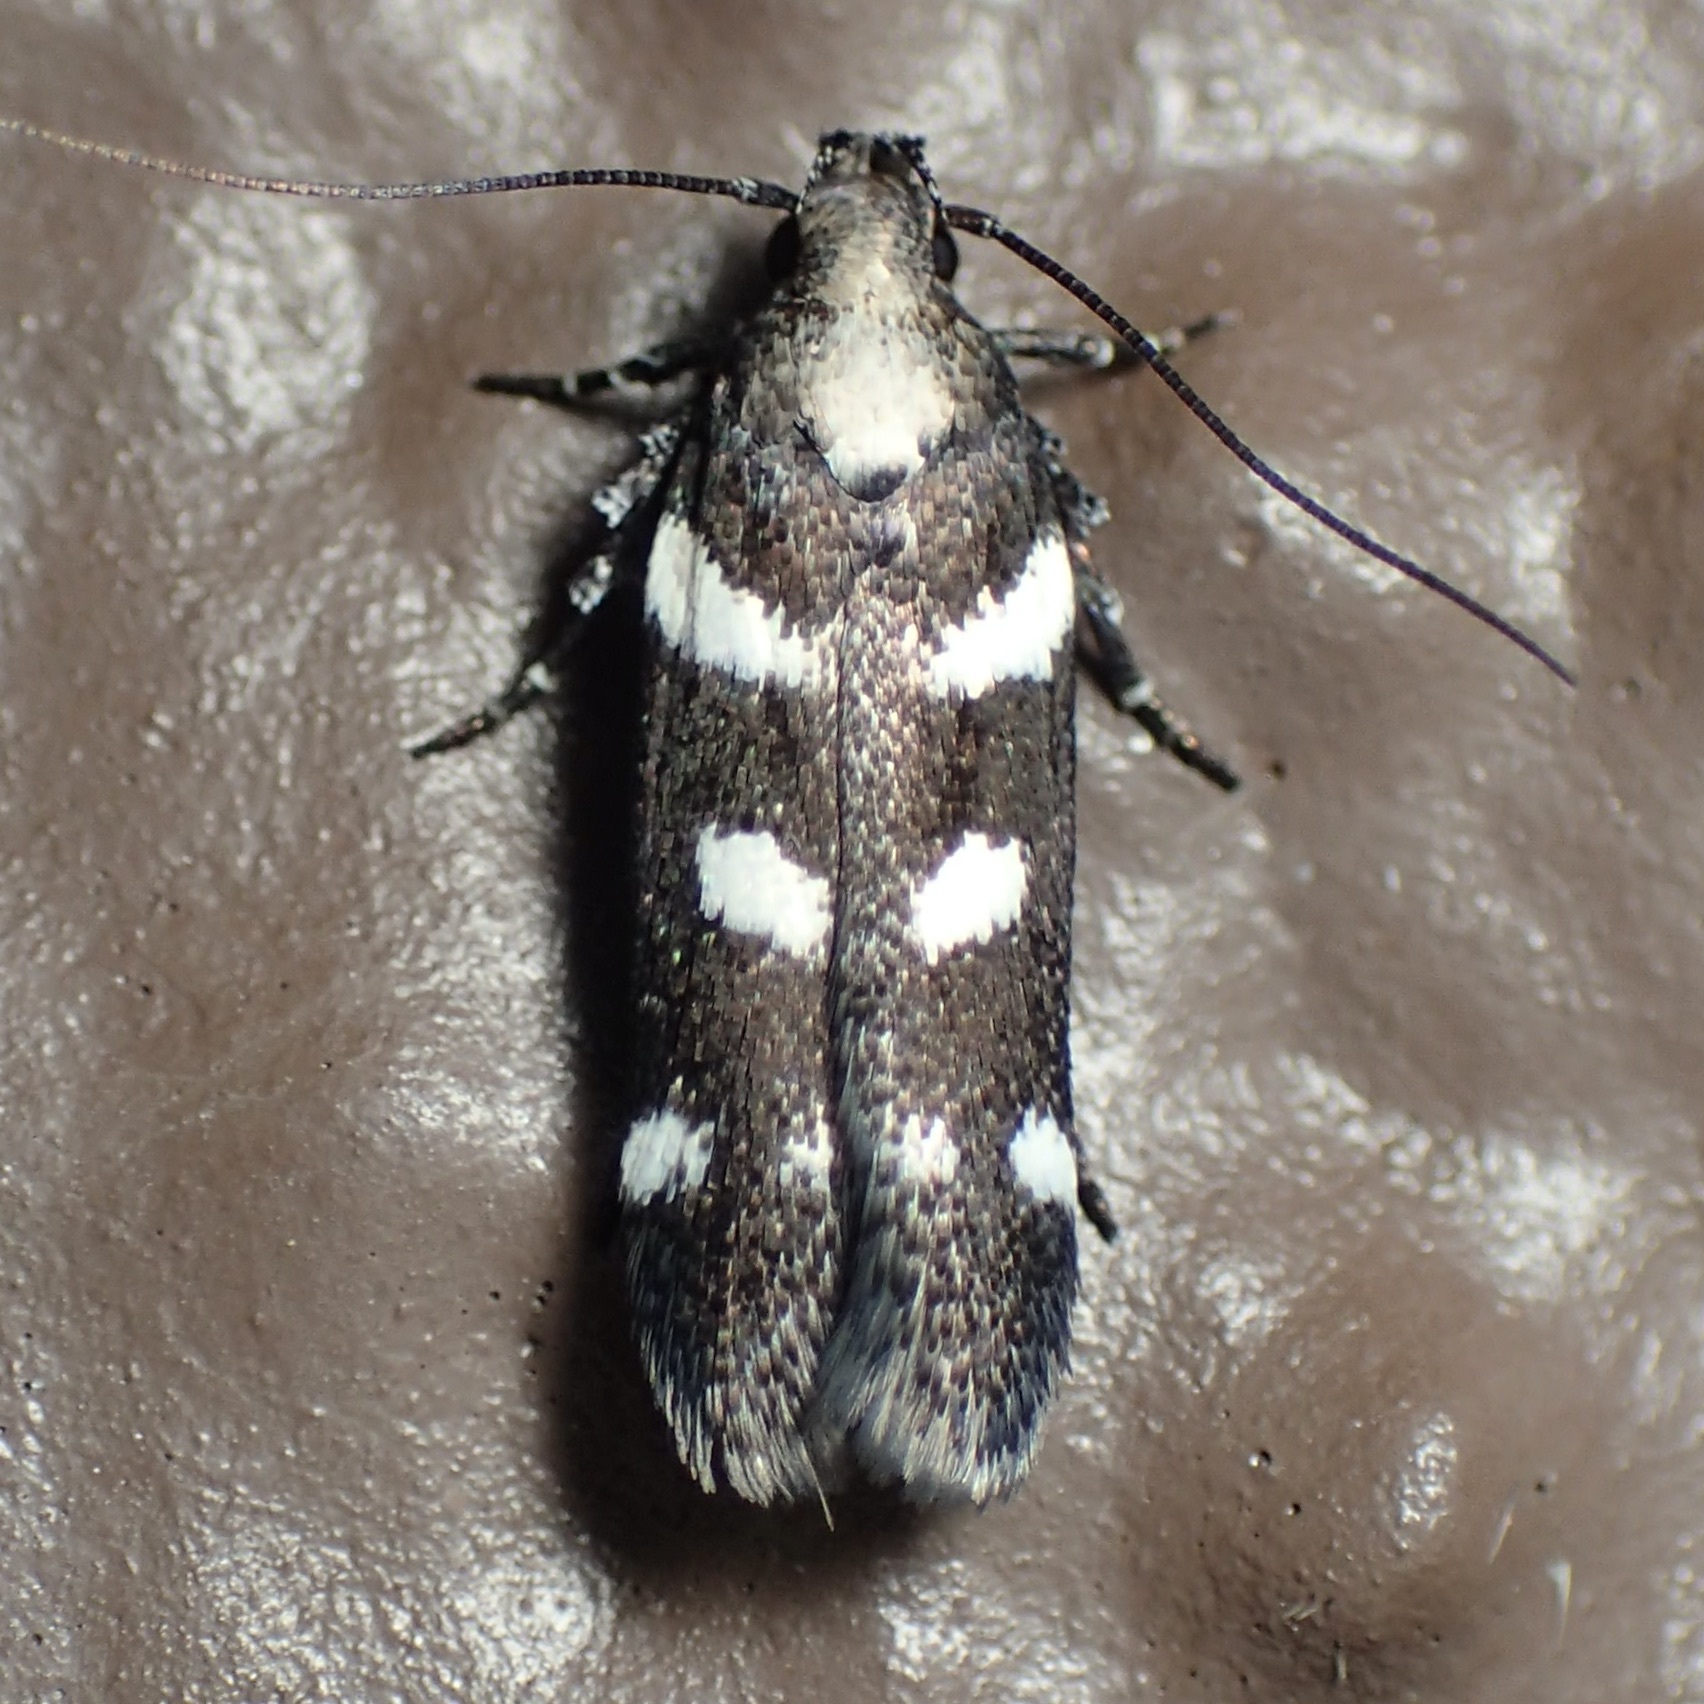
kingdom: Animalia
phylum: Arthropoda
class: Insecta
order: Lepidoptera
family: Gelechiidae
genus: Filatima
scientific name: Filatima arizonella
